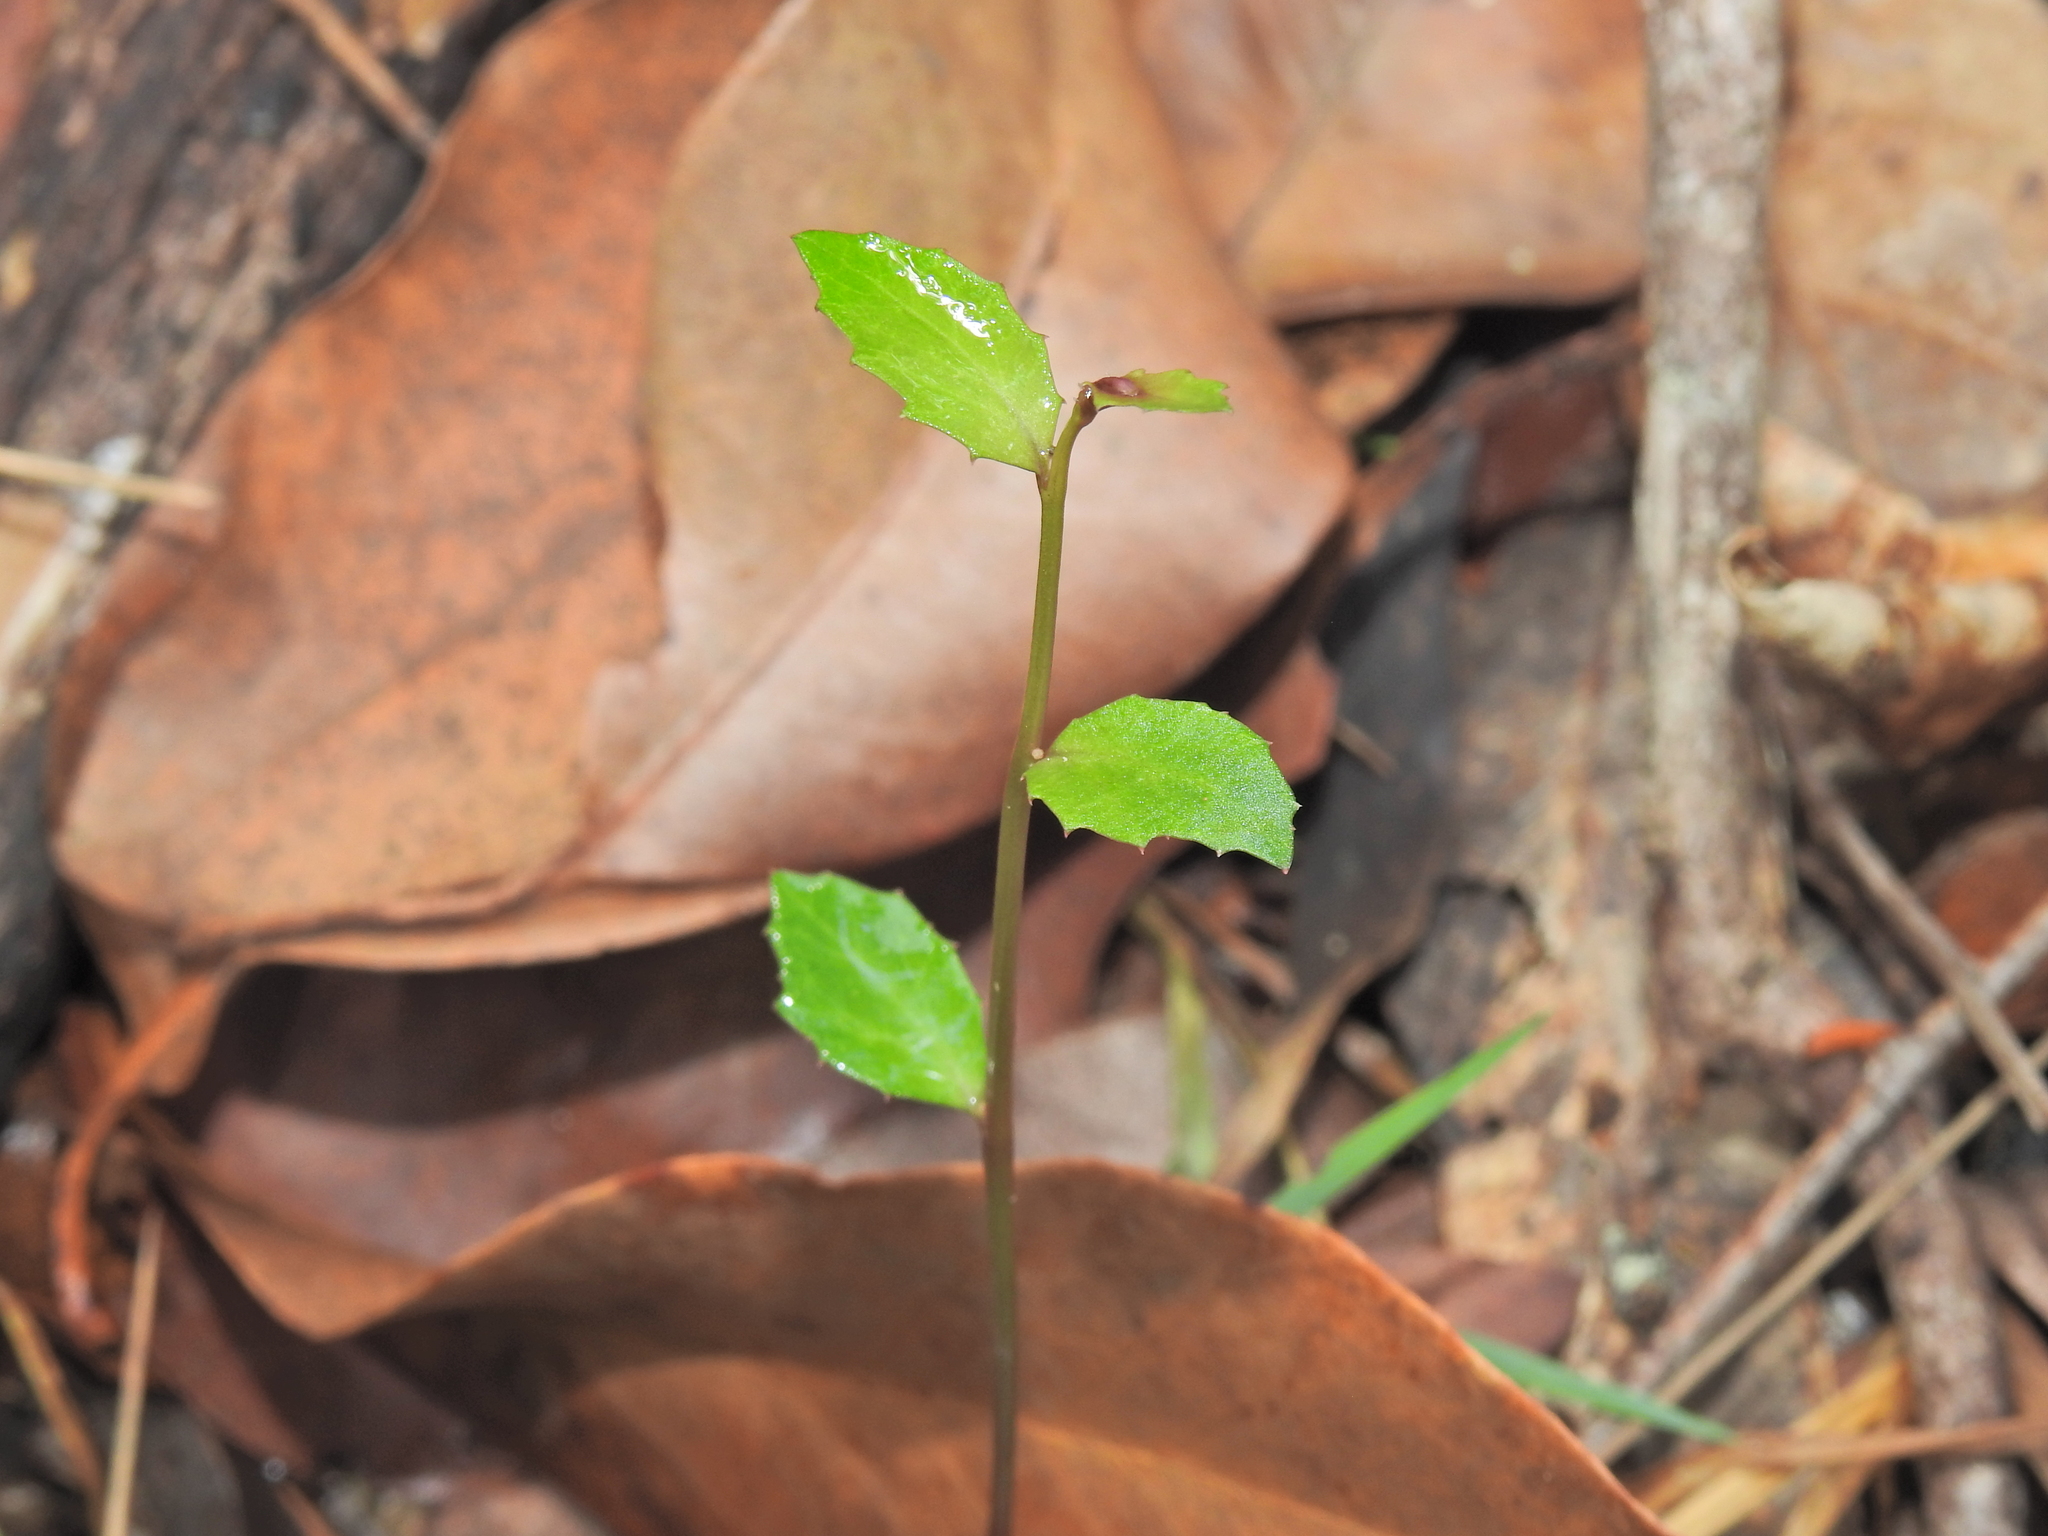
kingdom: Plantae
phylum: Tracheophyta
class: Magnoliopsida
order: Asterales
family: Campanulaceae
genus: Lobelia
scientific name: Lobelia purpurascens
